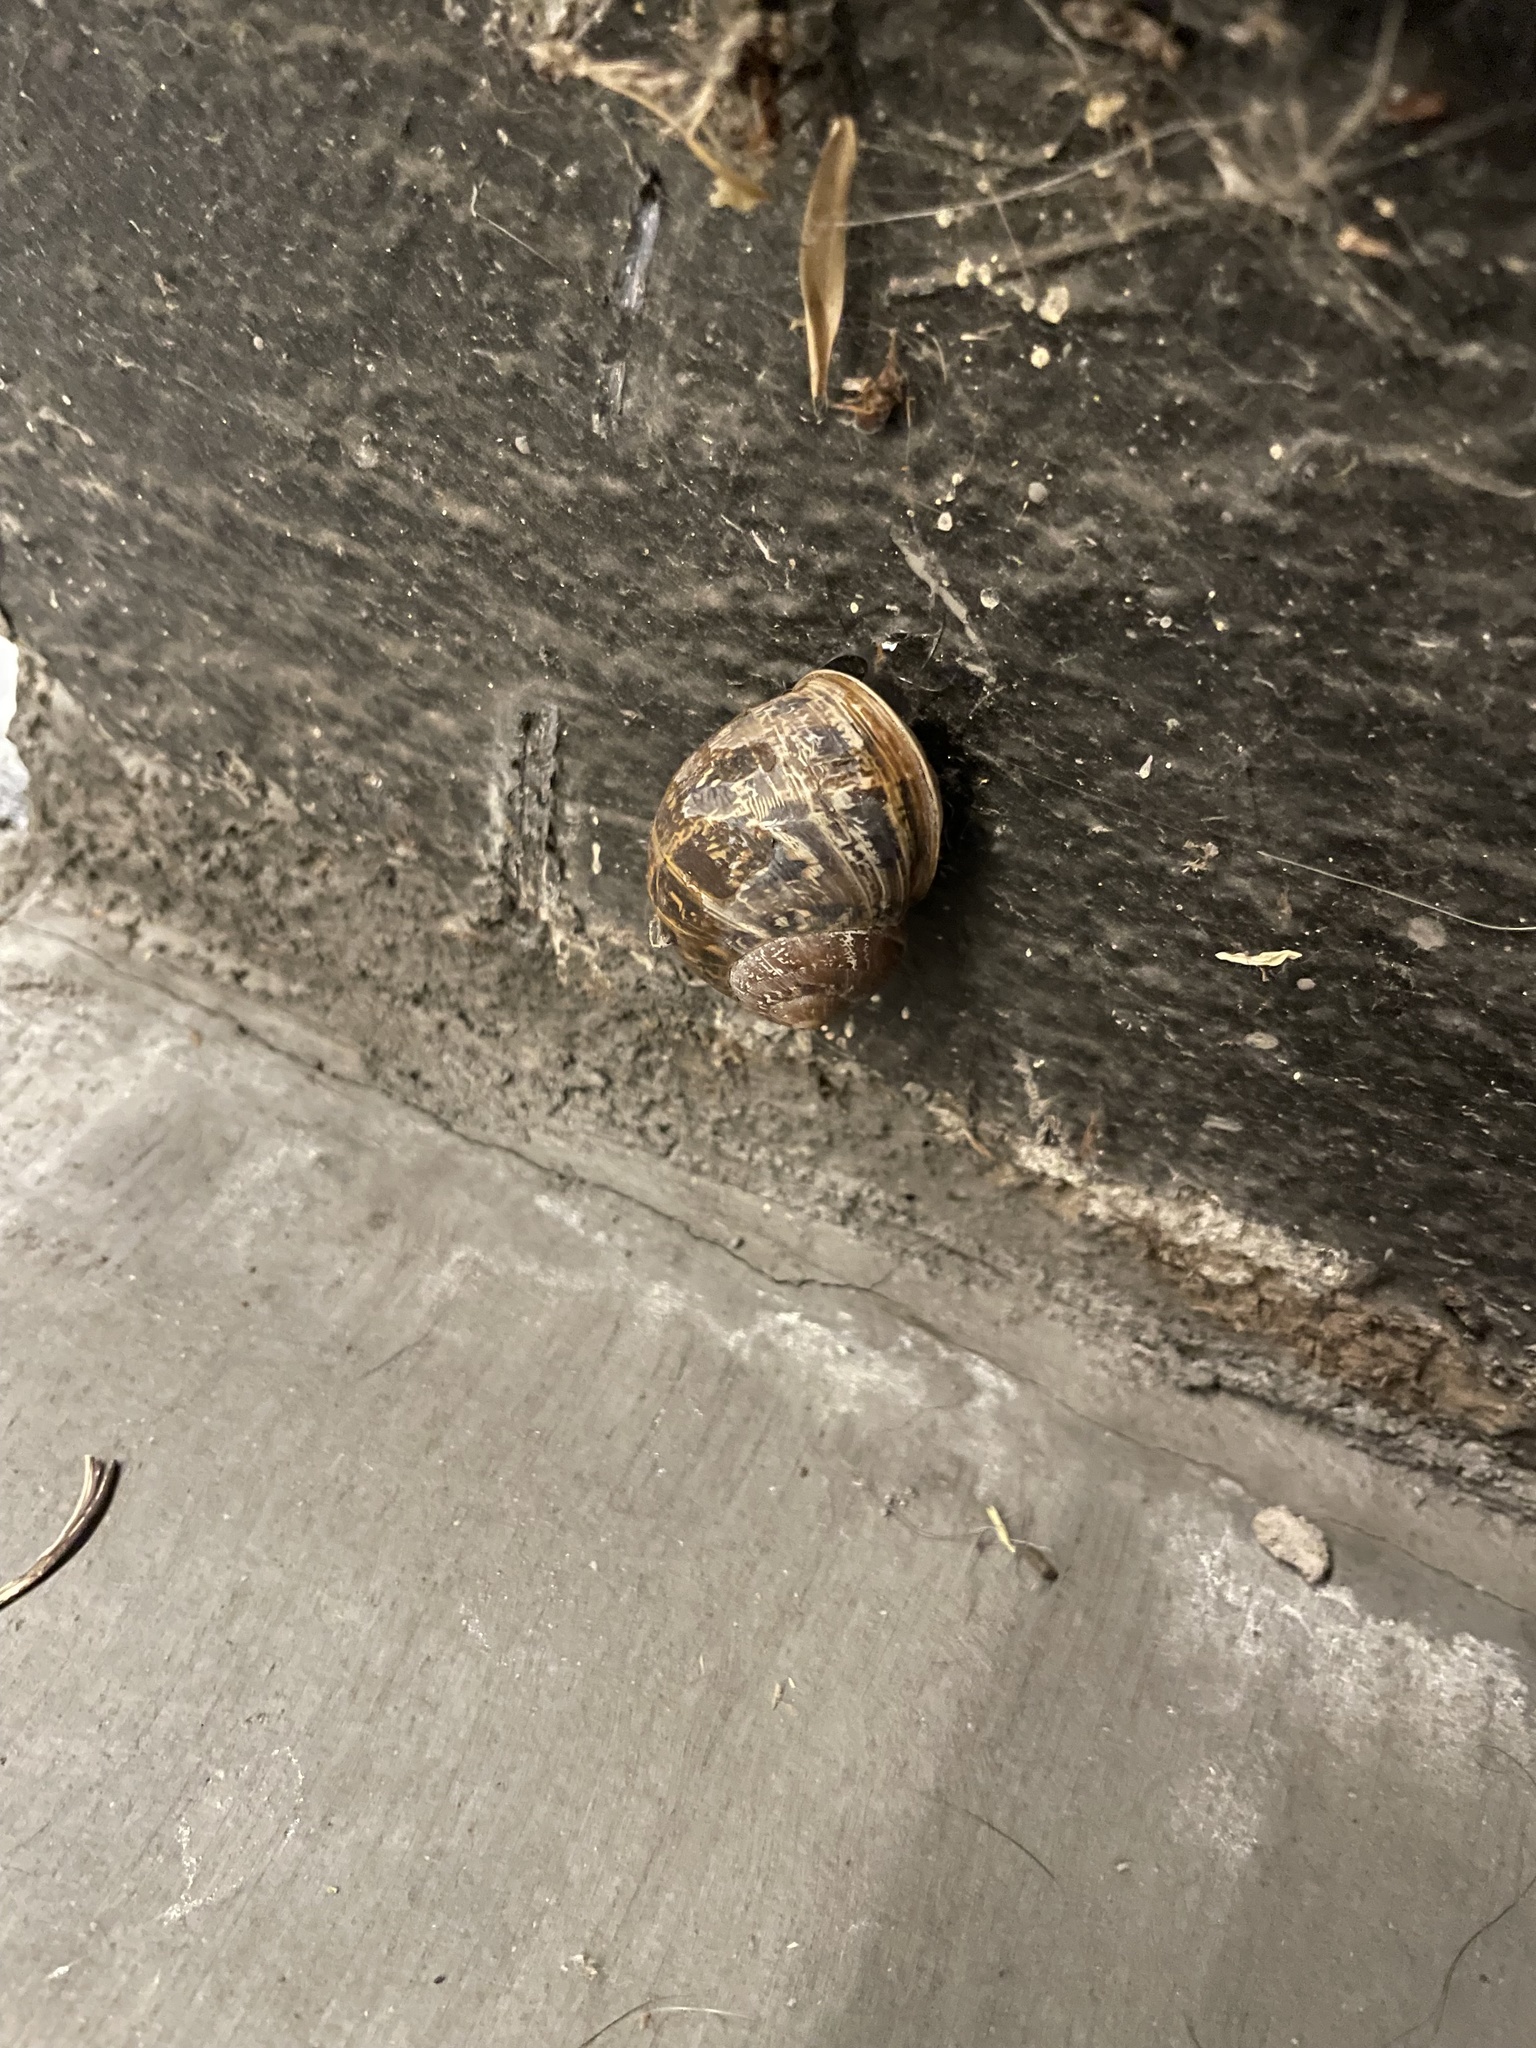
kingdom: Animalia
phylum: Mollusca
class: Gastropoda
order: Stylommatophora
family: Helicidae
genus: Cornu
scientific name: Cornu aspersum
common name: Brown garden snail
